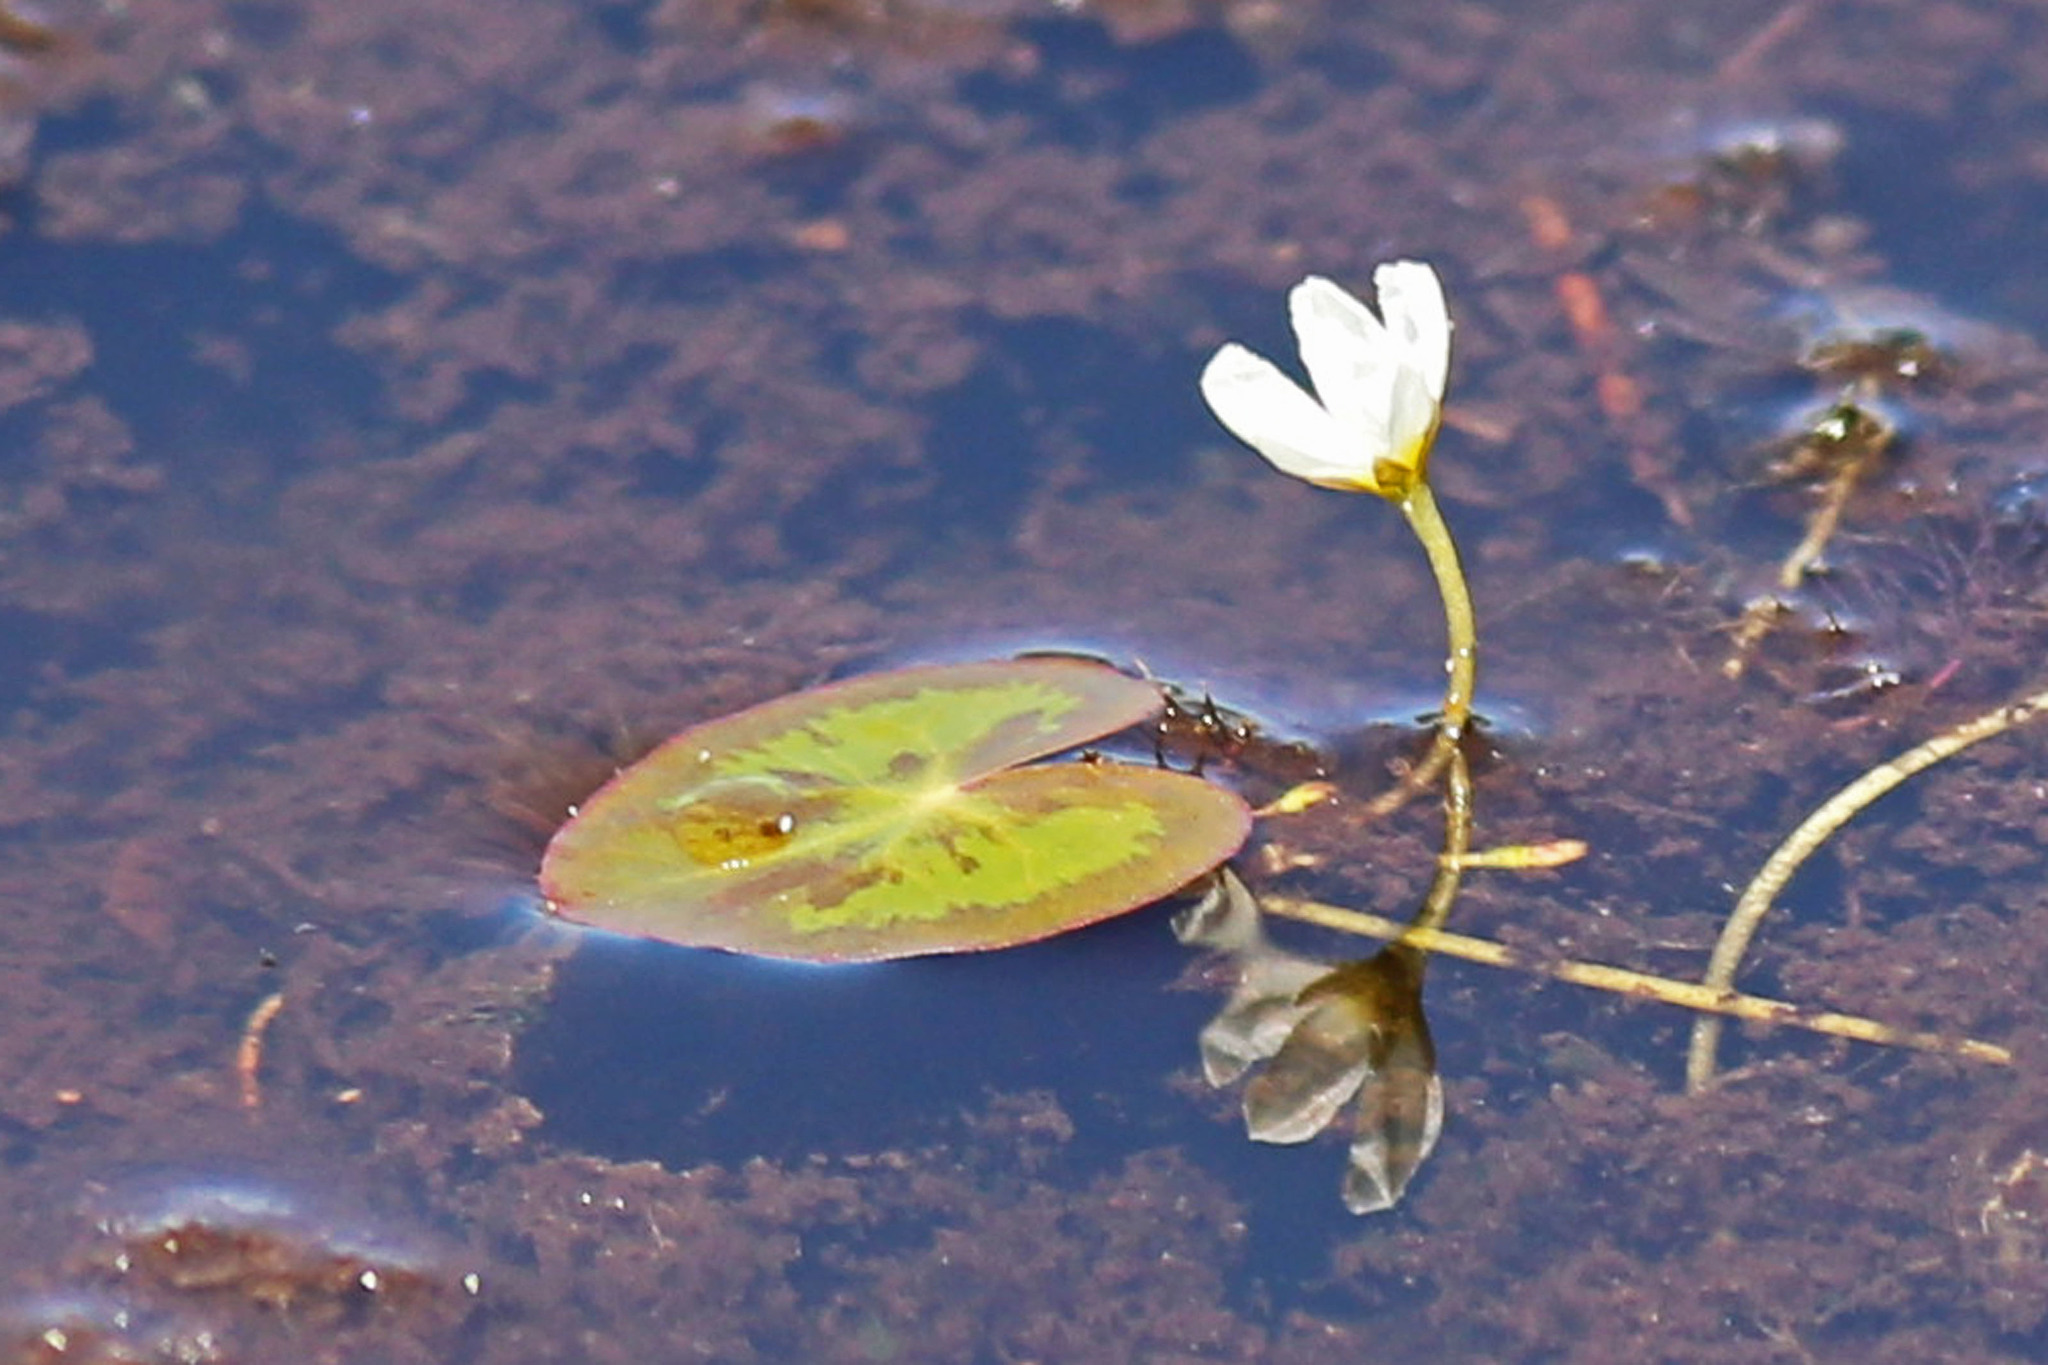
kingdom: Plantae
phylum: Tracheophyta
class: Magnoliopsida
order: Asterales
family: Menyanthaceae
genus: Nymphoides
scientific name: Nymphoides cordata
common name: Eight-angled floatingheart
